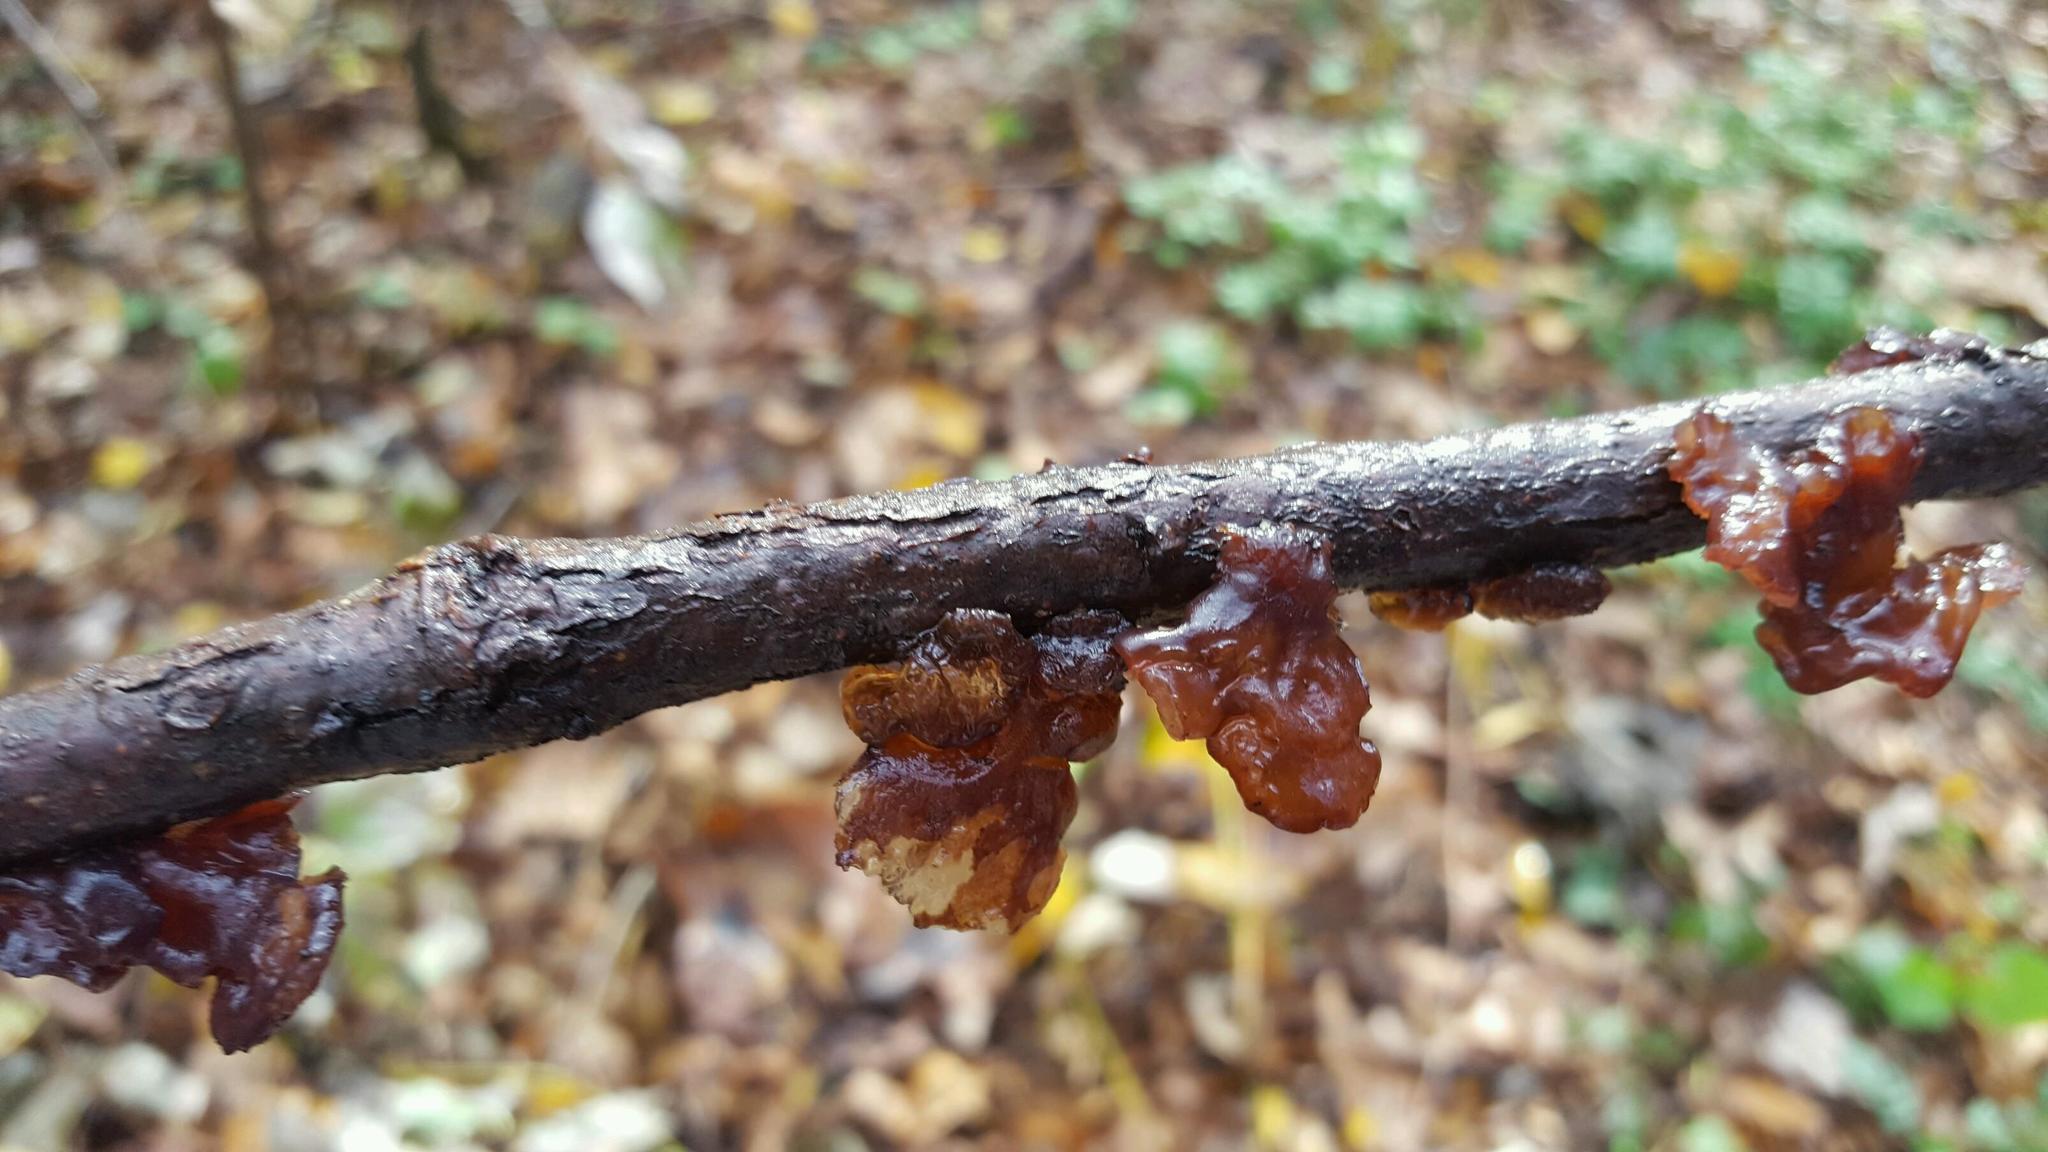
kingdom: Fungi
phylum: Basidiomycota
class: Agaricomycetes
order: Auriculariales
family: Auriculariaceae
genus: Exidia
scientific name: Exidia
